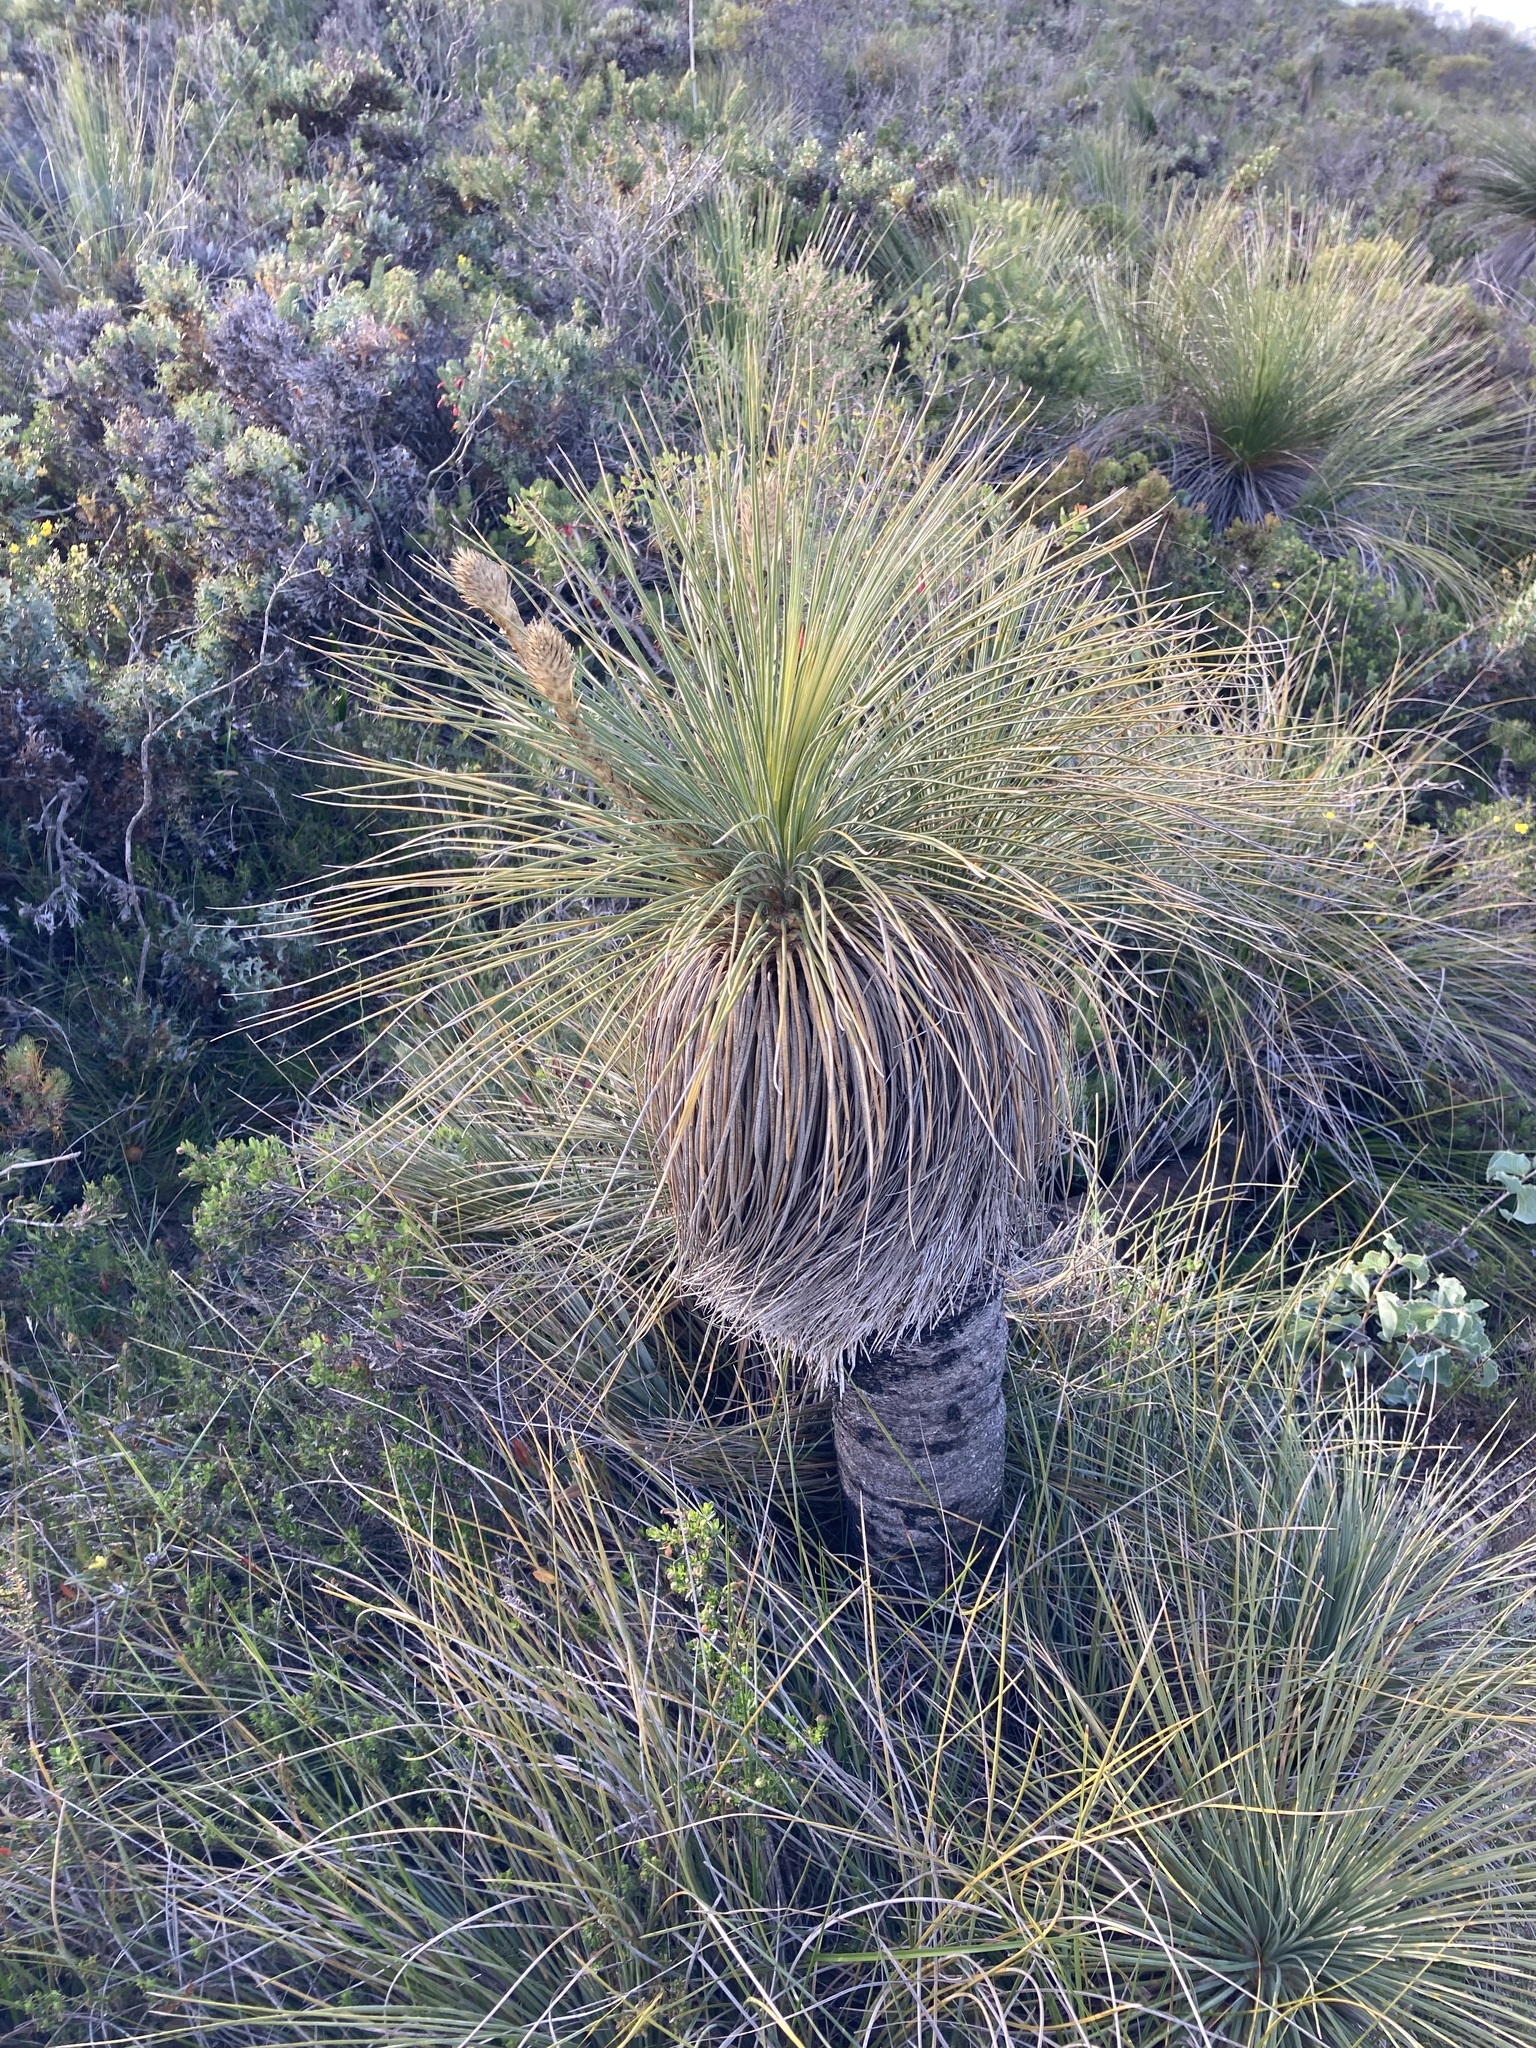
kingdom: Plantae
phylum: Tracheophyta
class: Liliopsida
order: Arecales
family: Dasypogonaceae
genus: Kingia
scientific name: Kingia australis
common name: Black gin
